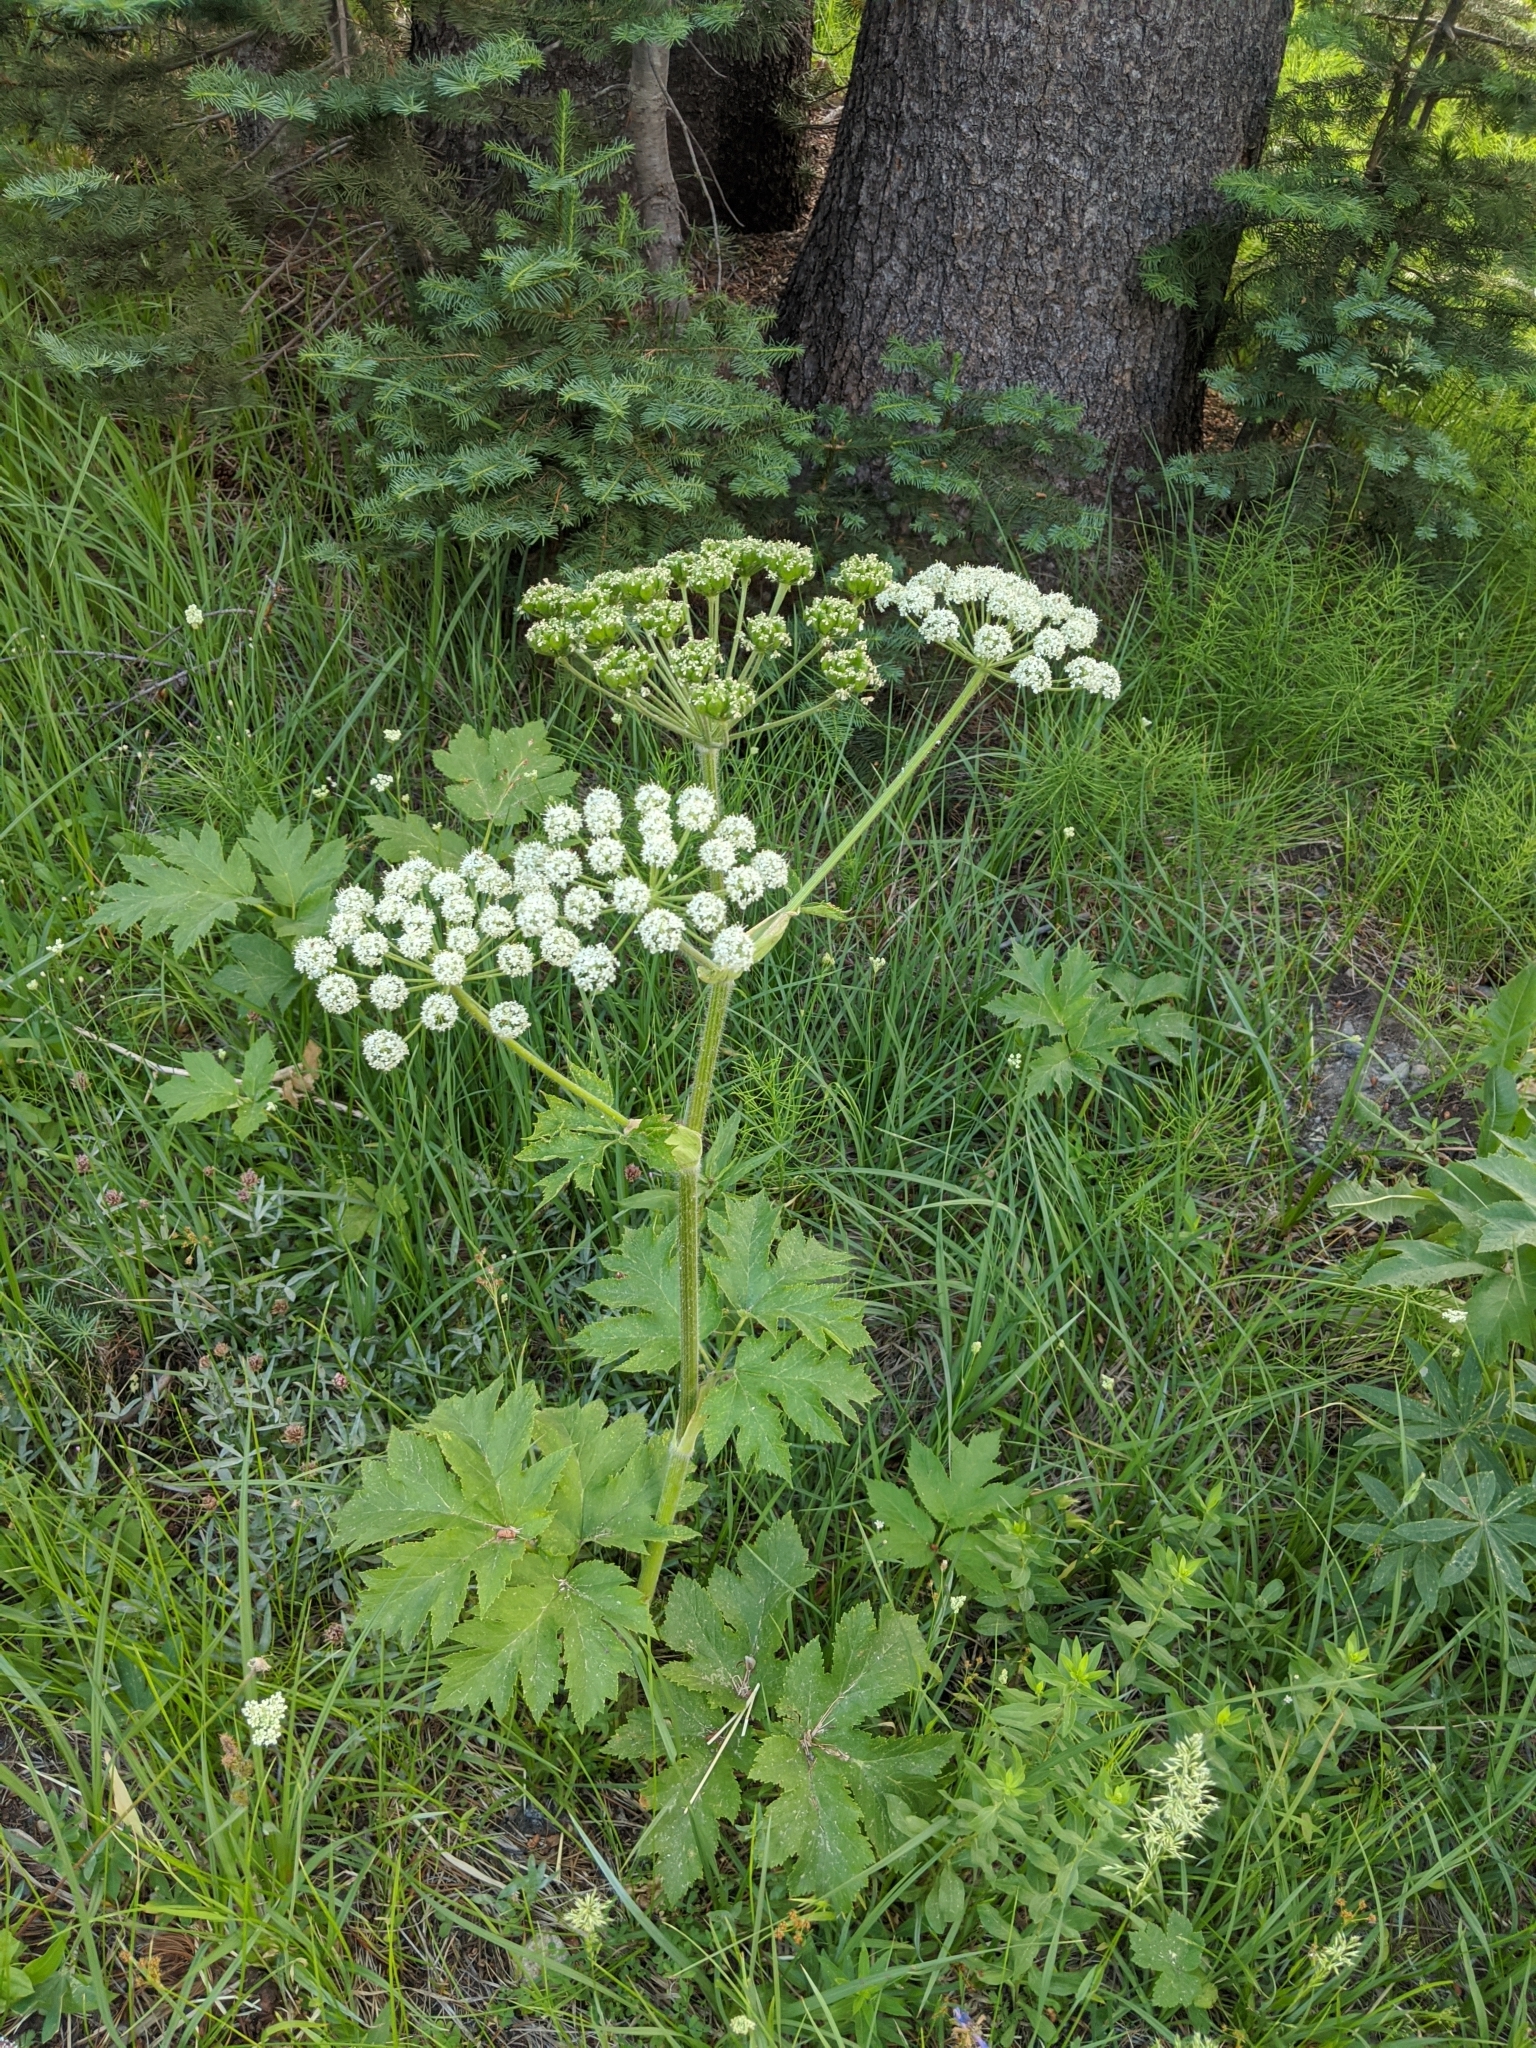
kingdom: Plantae
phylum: Tracheophyta
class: Magnoliopsida
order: Apiales
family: Apiaceae
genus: Heracleum
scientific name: Heracleum maximum
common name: American cow parsnip
